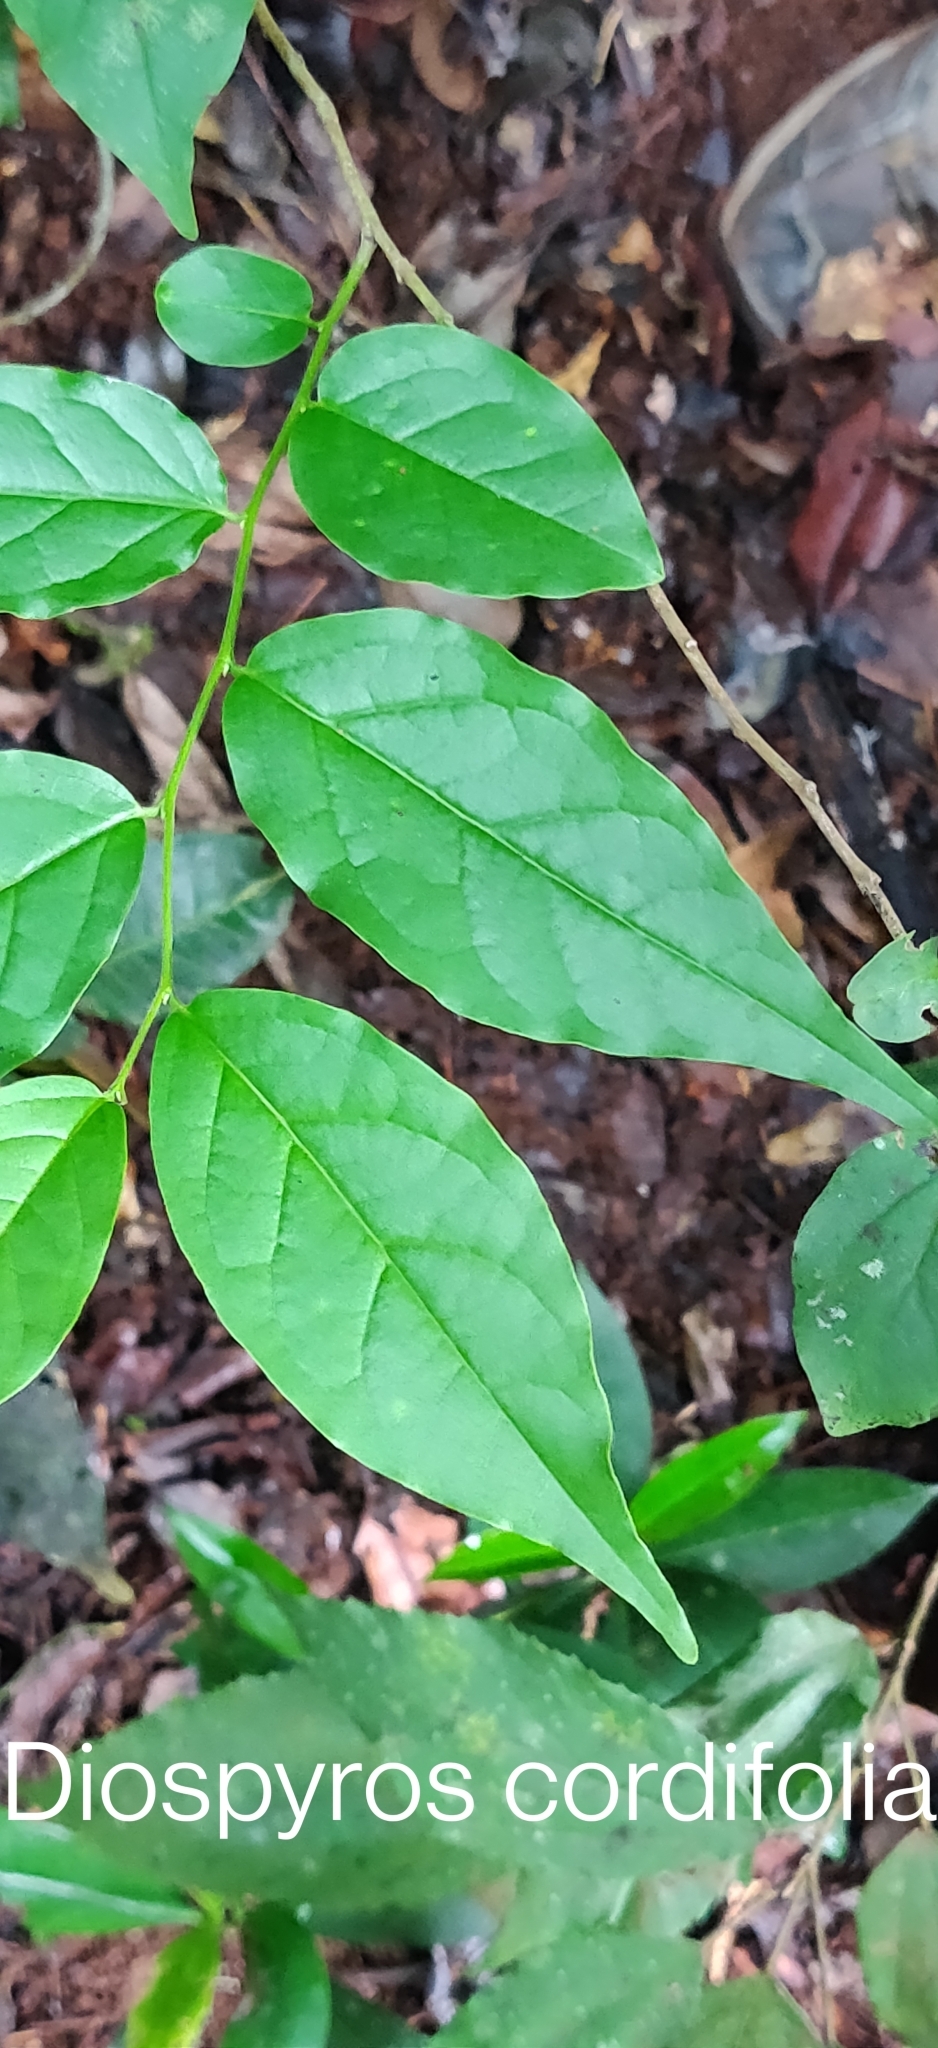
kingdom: Plantae
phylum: Tracheophyta
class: Magnoliopsida
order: Ericales
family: Ebenaceae
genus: Diospyros
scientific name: Diospyros montana
